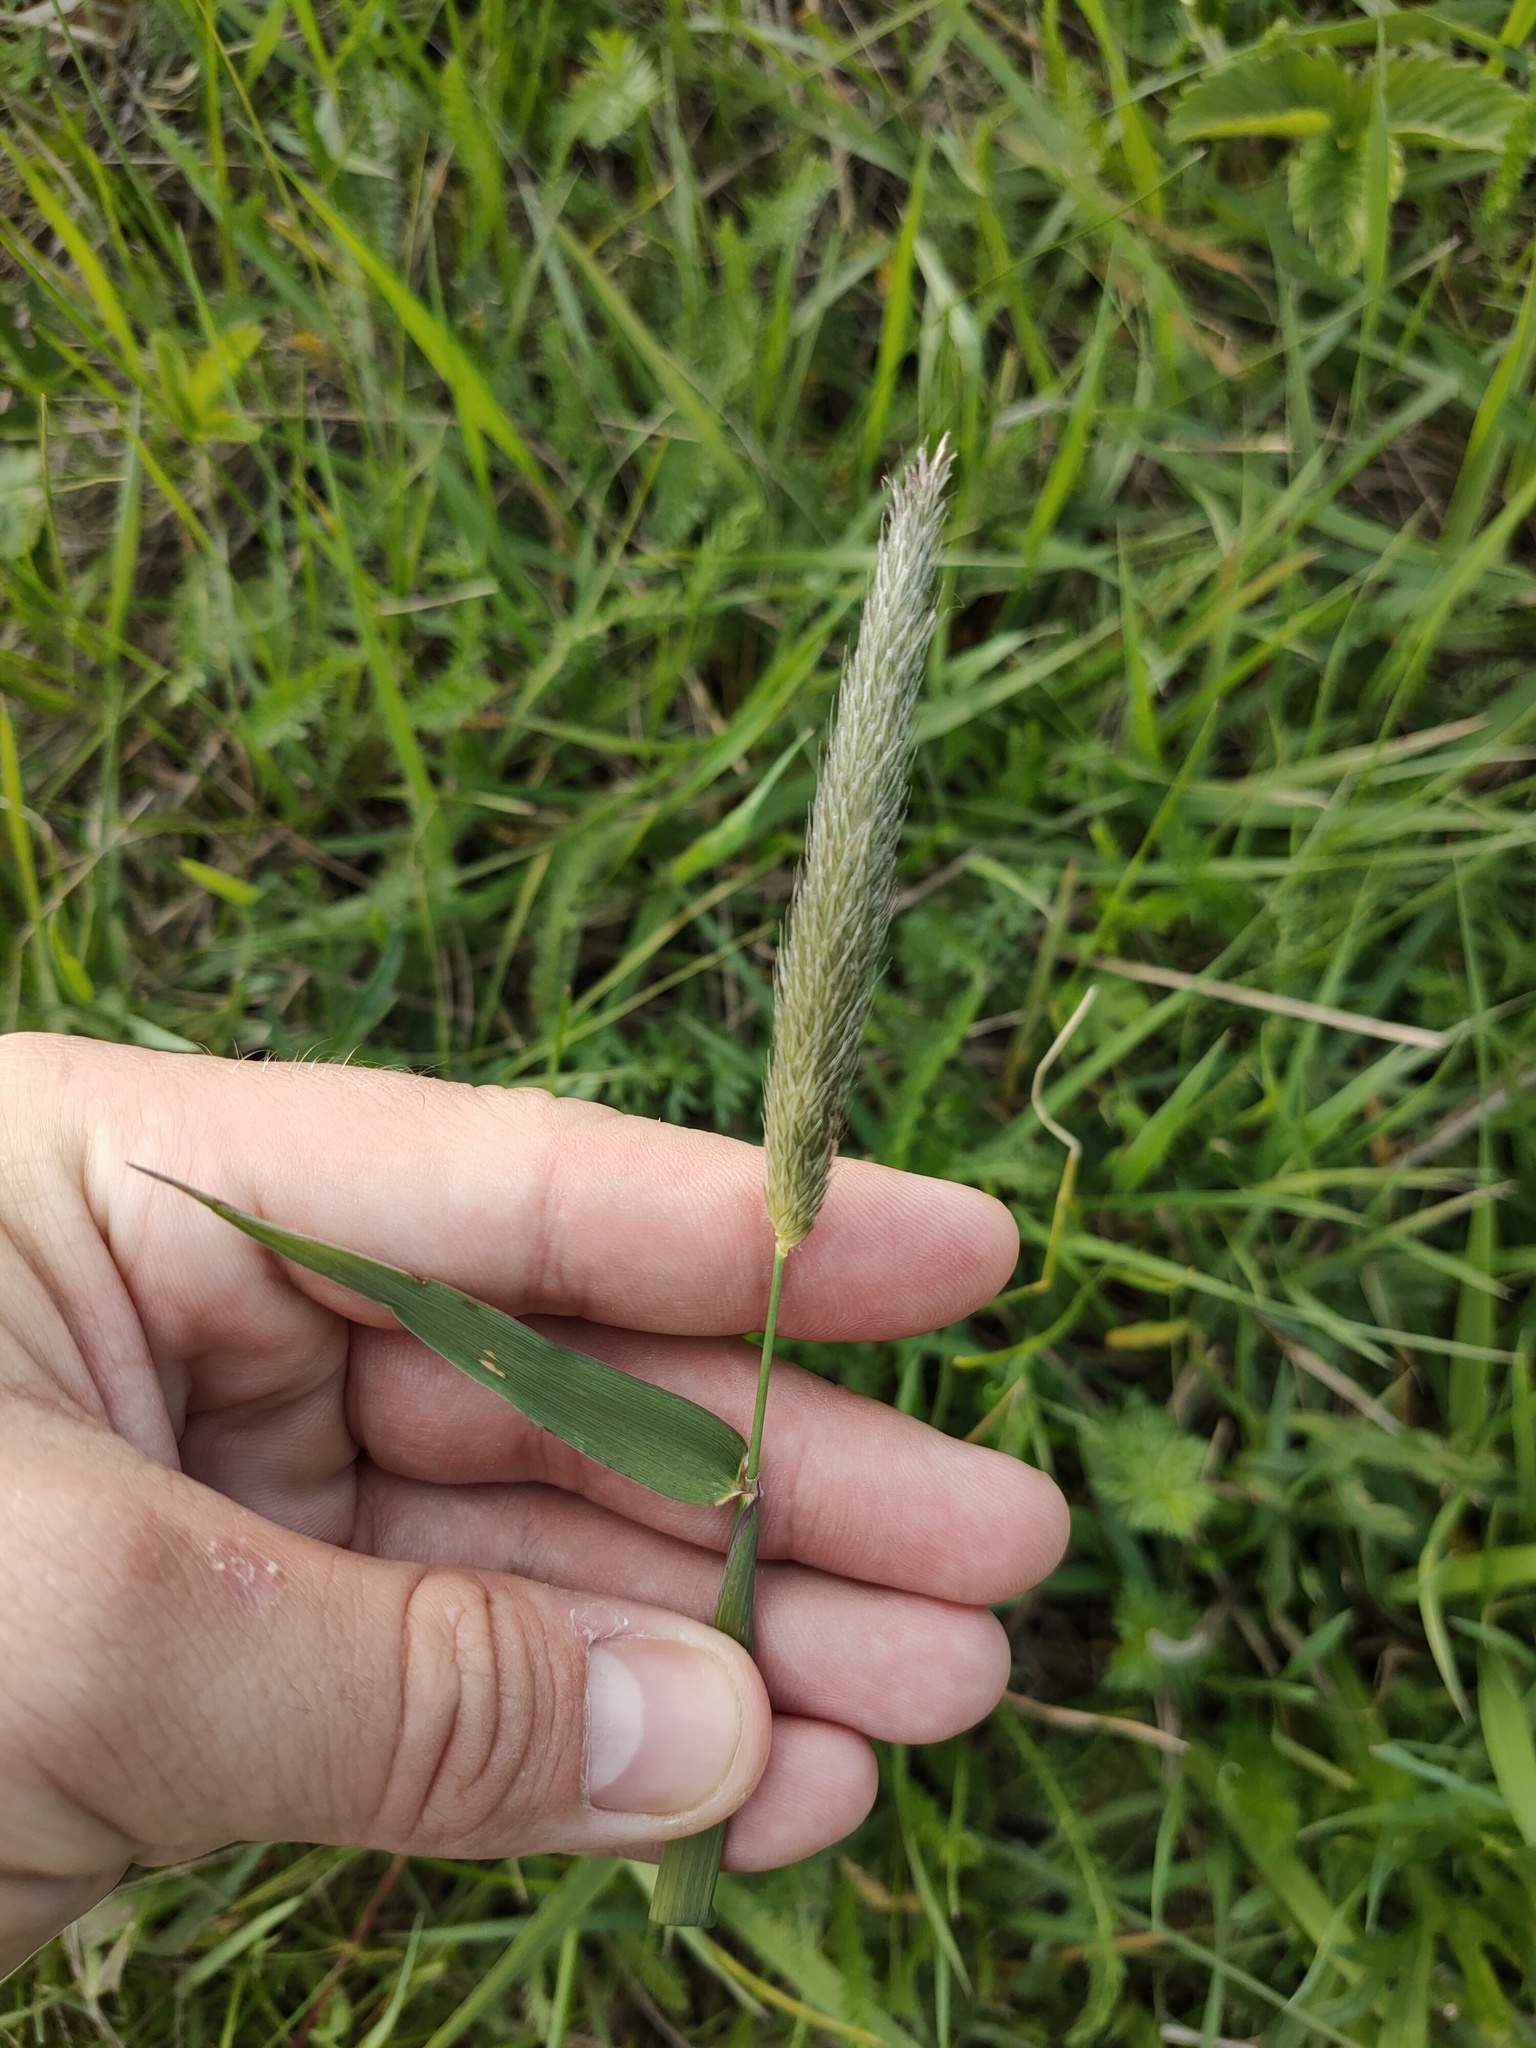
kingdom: Plantae
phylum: Tracheophyta
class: Liliopsida
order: Poales
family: Poaceae
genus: Alopecurus
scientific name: Alopecurus pratensis
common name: Meadow foxtail
